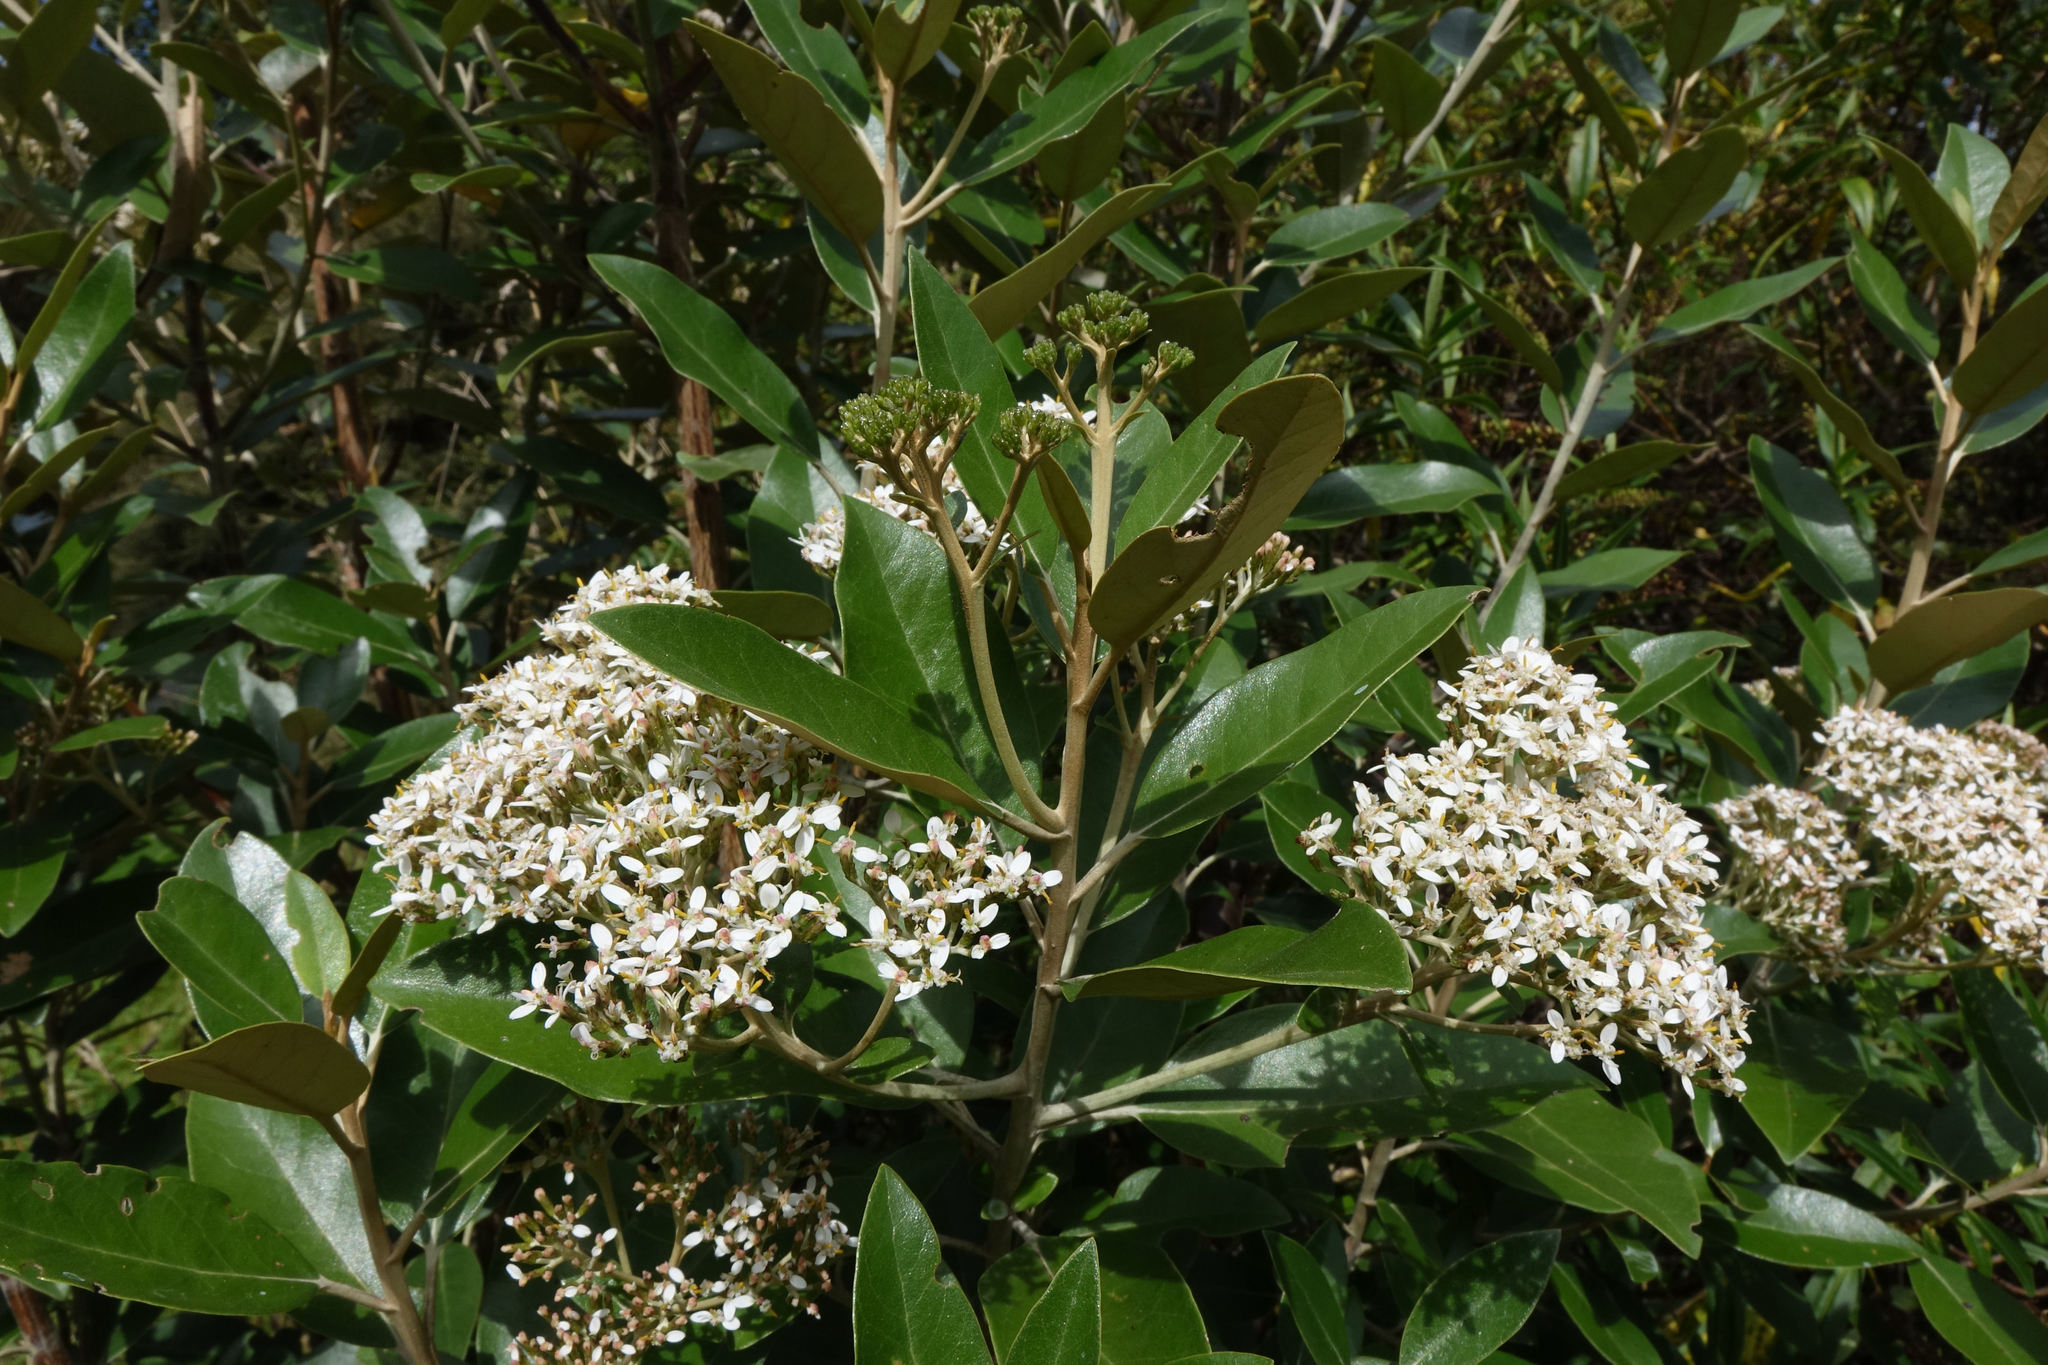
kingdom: Plantae
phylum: Tracheophyta
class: Magnoliopsida
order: Asterales
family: Asteraceae
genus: Olearia
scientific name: Olearia avicenniifolia
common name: Mangrove-leaf daisybush
